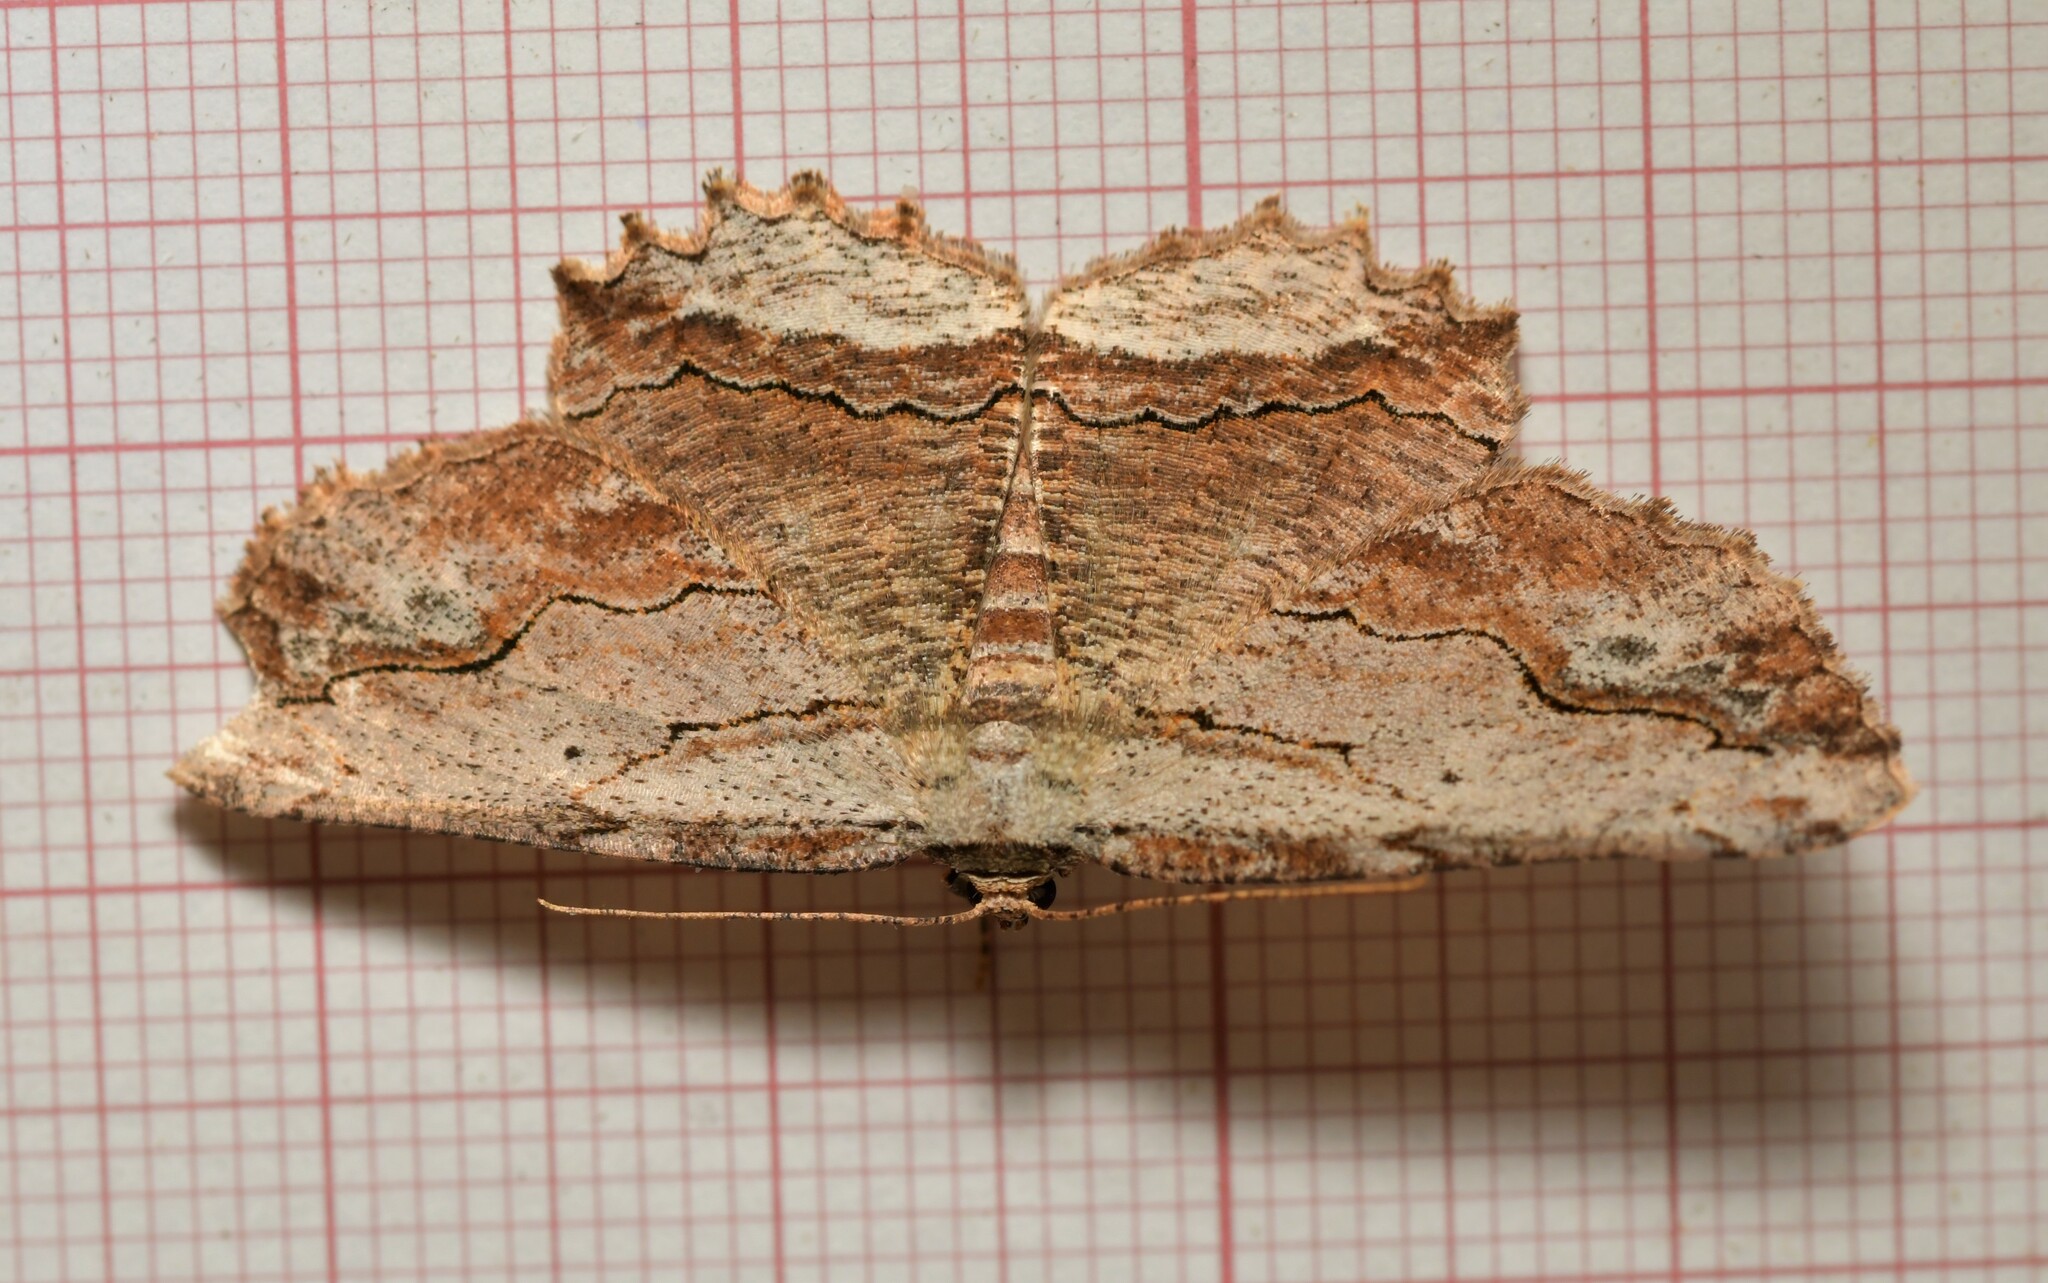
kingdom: Animalia
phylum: Arthropoda
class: Insecta
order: Lepidoptera
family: Geometridae
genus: Menophra
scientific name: Menophra abruptaria
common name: Waved umber
